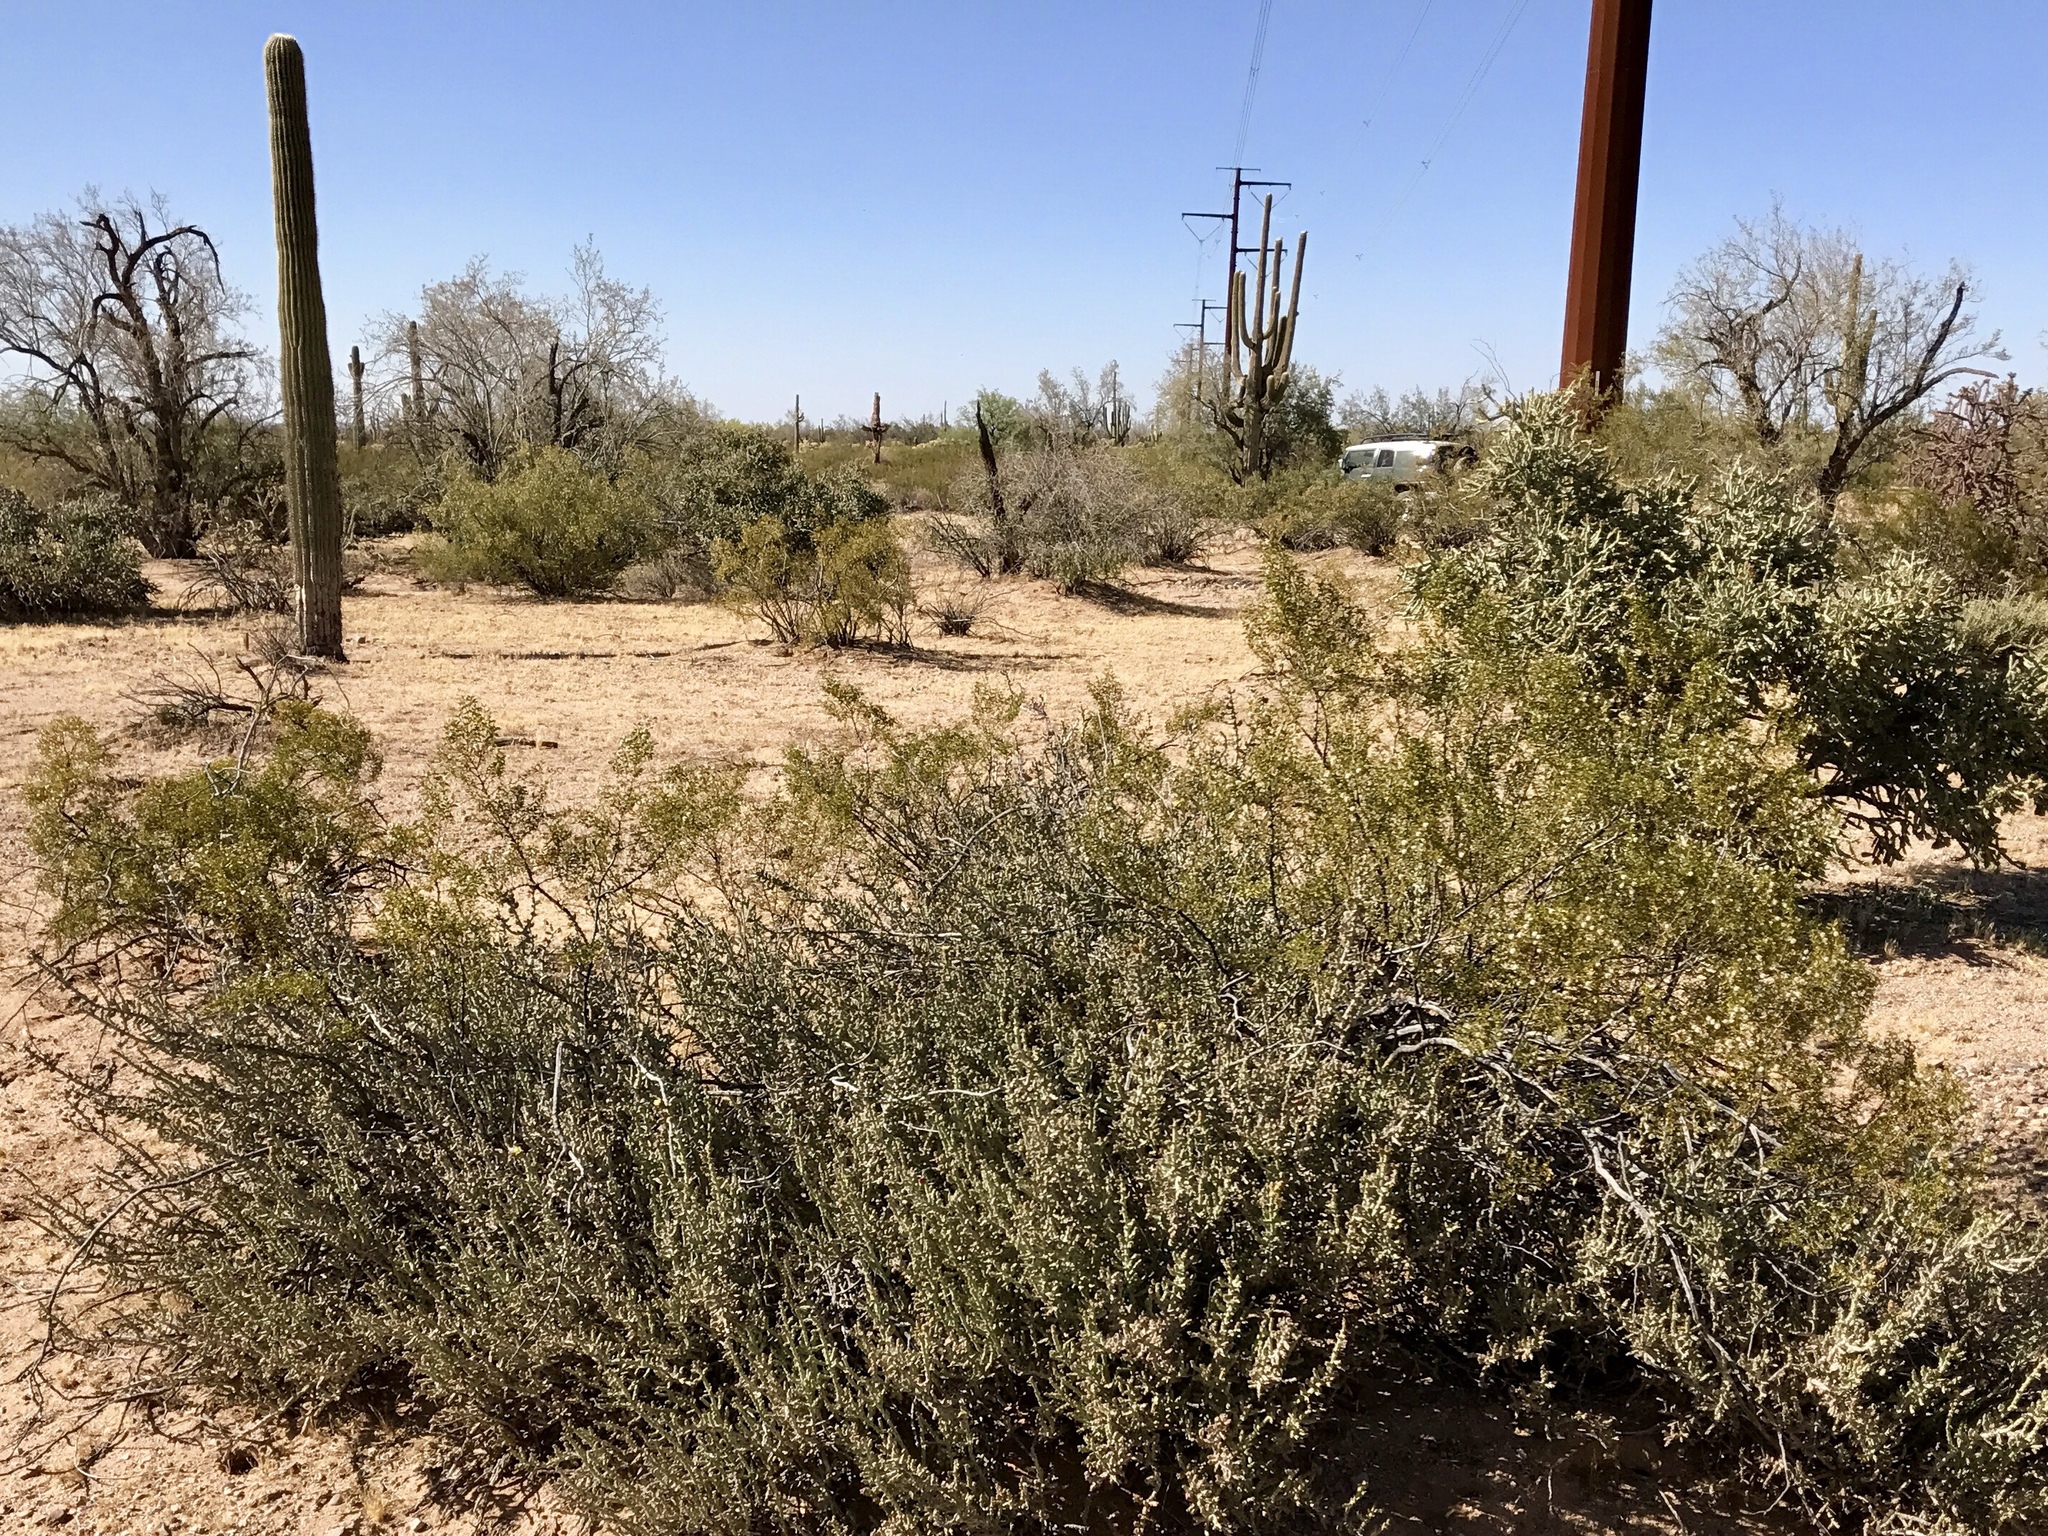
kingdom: Plantae
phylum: Tracheophyta
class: Magnoliopsida
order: Zygophyllales
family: Zygophyllaceae
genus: Larrea
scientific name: Larrea tridentata
